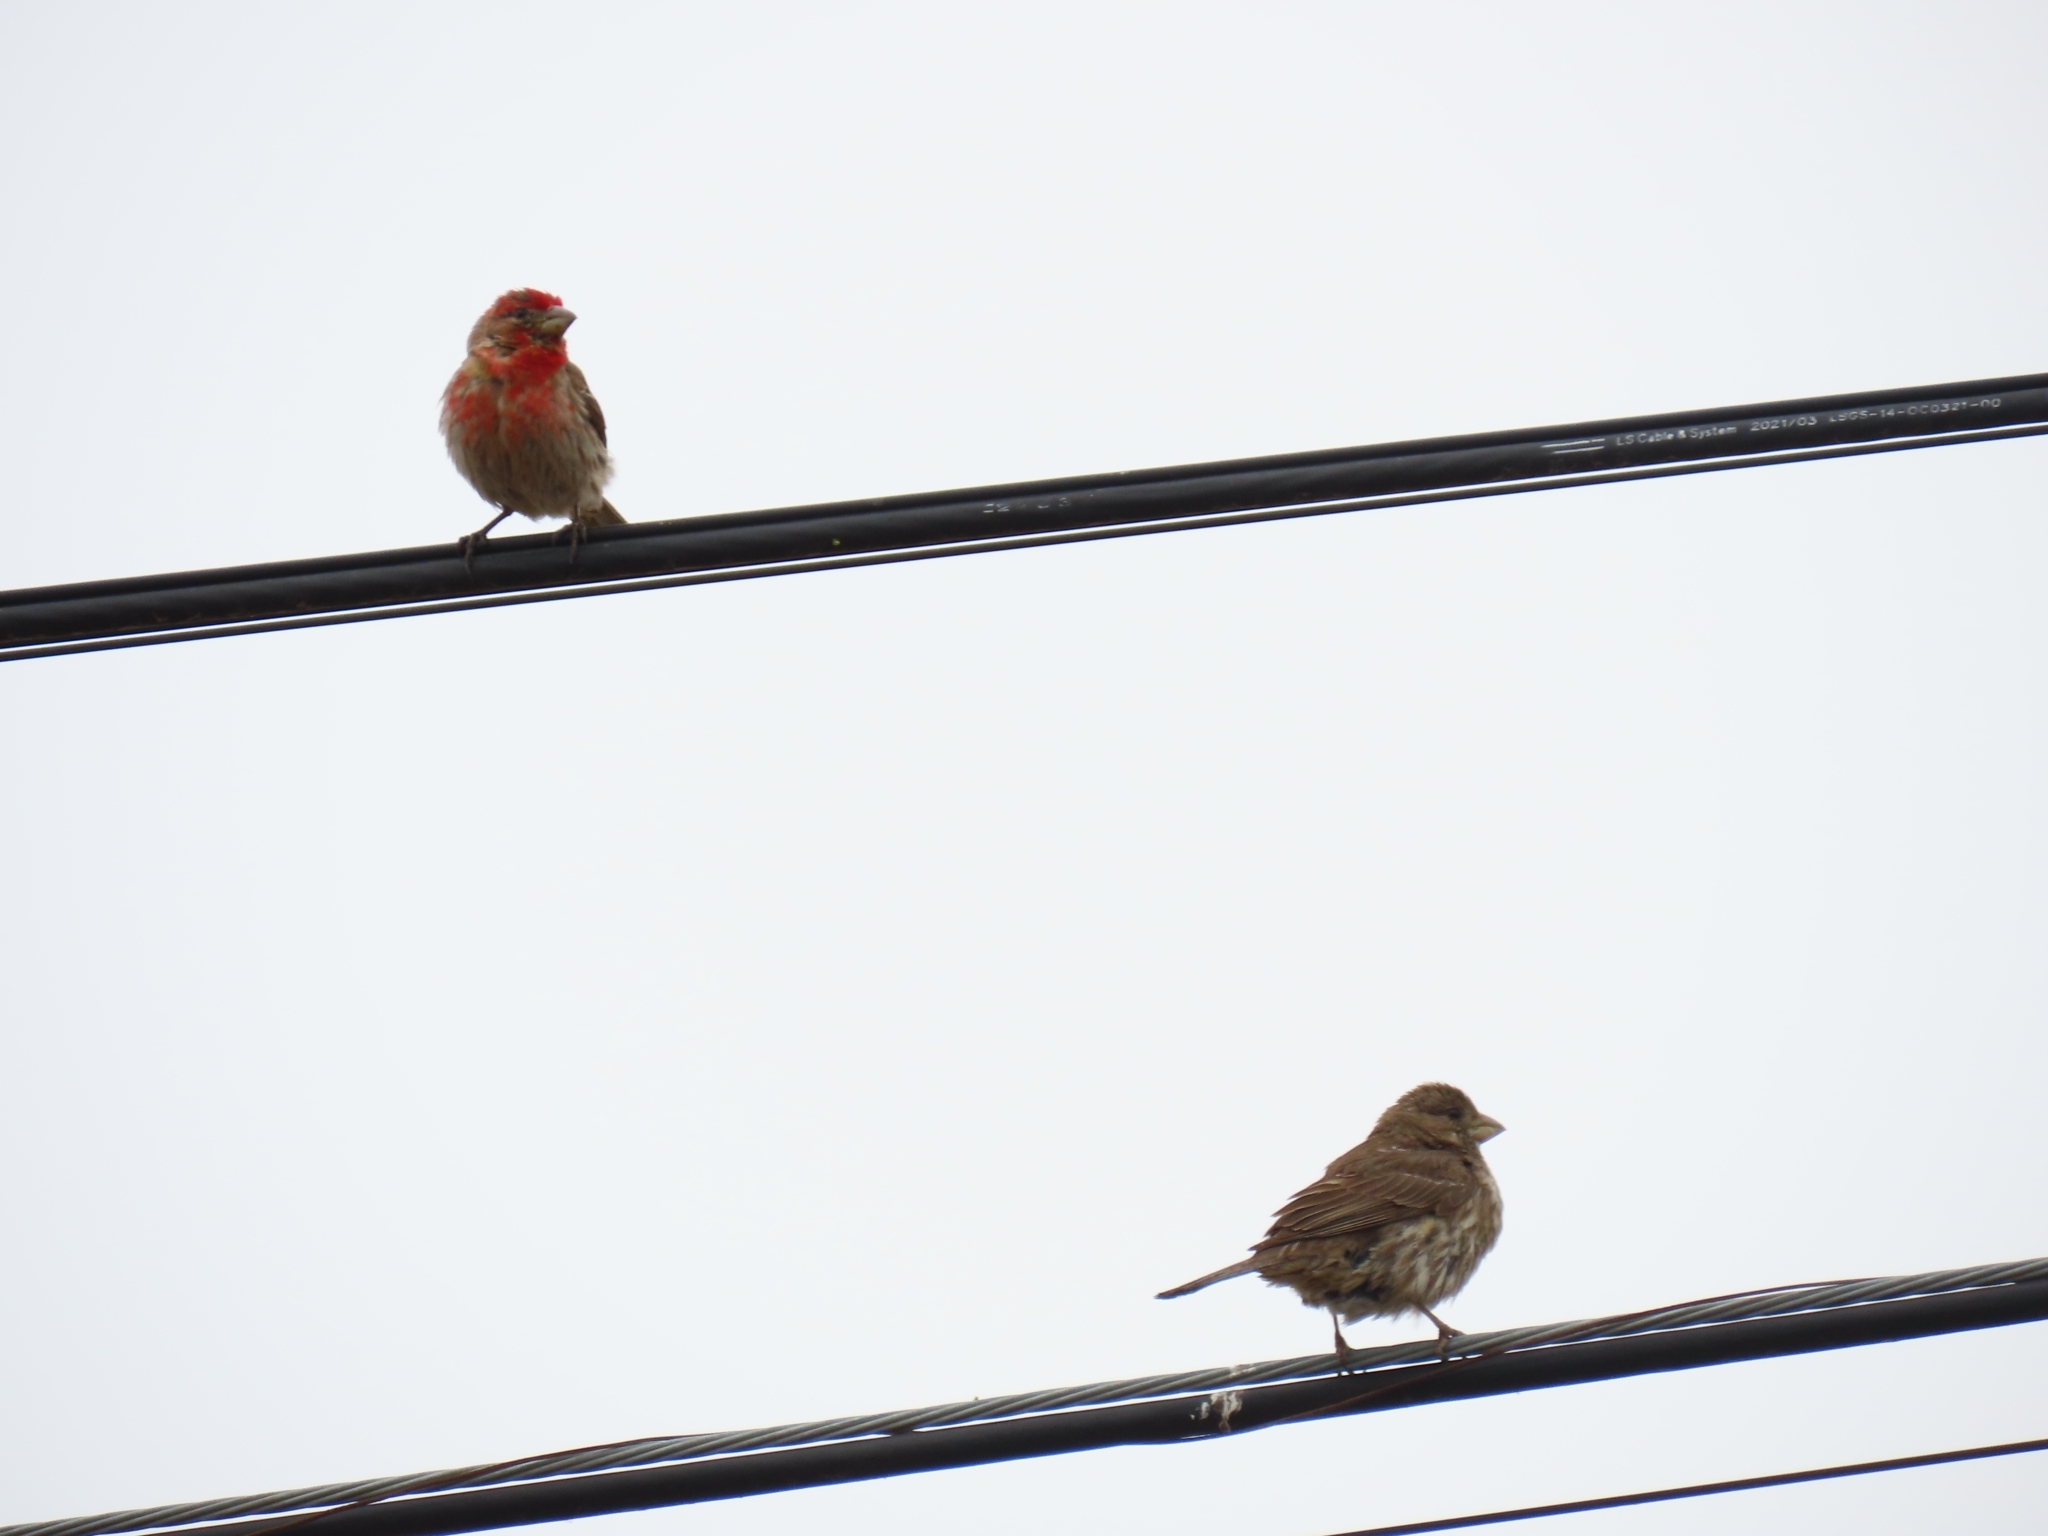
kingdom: Animalia
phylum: Chordata
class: Aves
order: Passeriformes
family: Fringillidae
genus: Haemorhous
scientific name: Haemorhous mexicanus
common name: House finch
